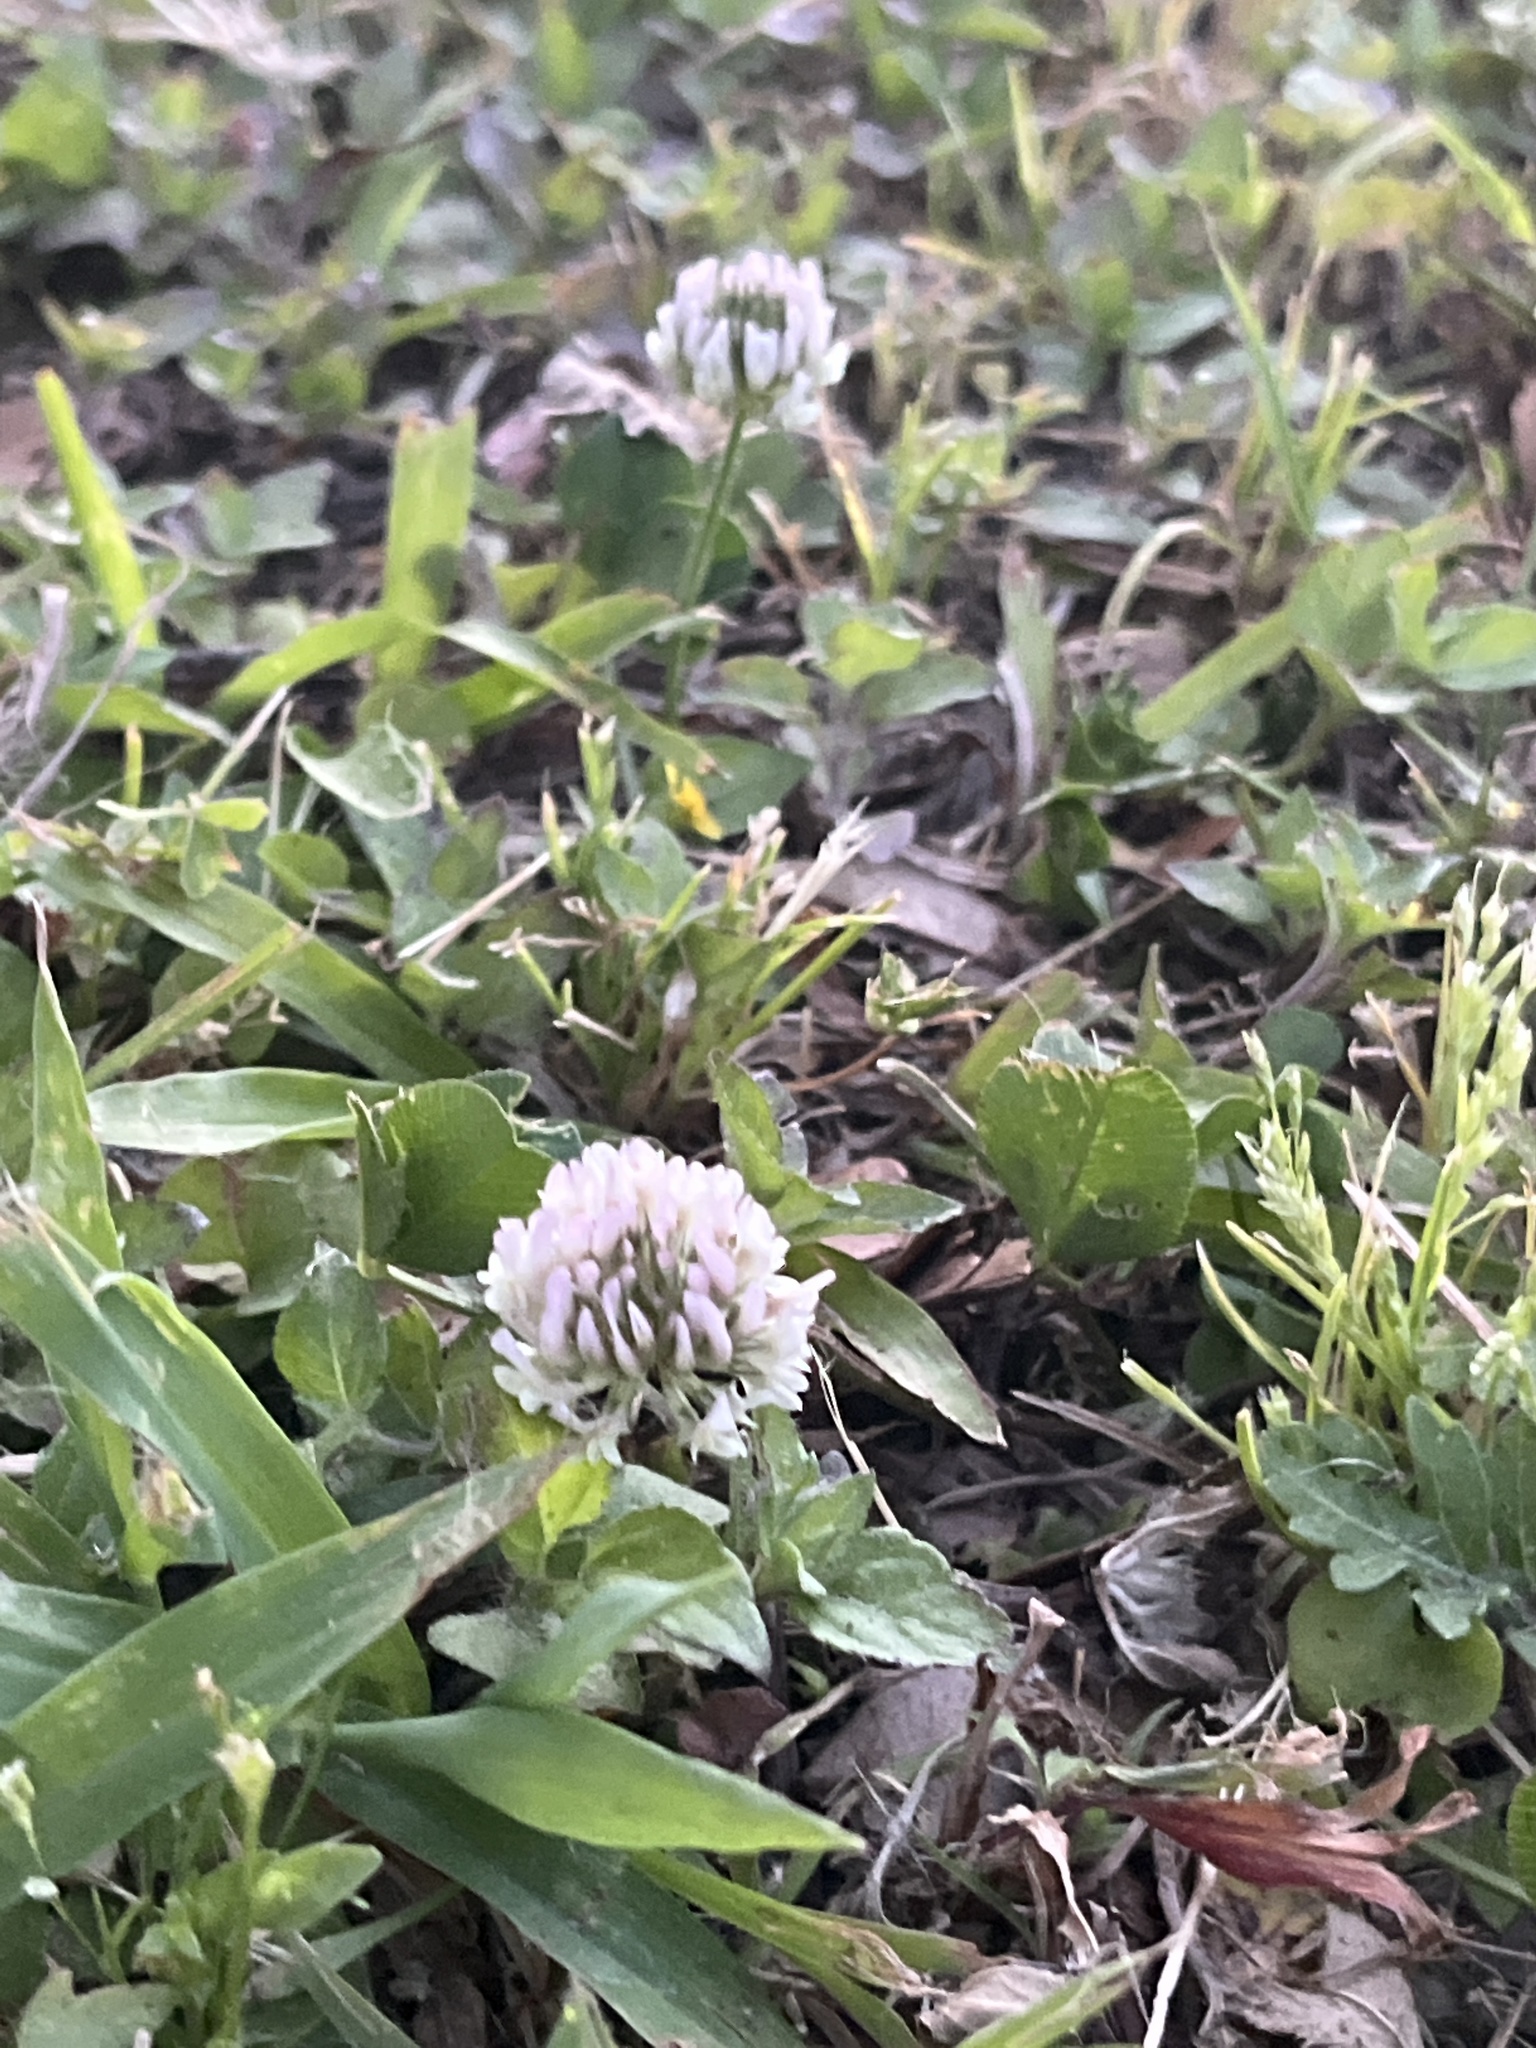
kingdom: Plantae
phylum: Tracheophyta
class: Magnoliopsida
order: Fabales
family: Fabaceae
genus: Trifolium
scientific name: Trifolium repens
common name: White clover
